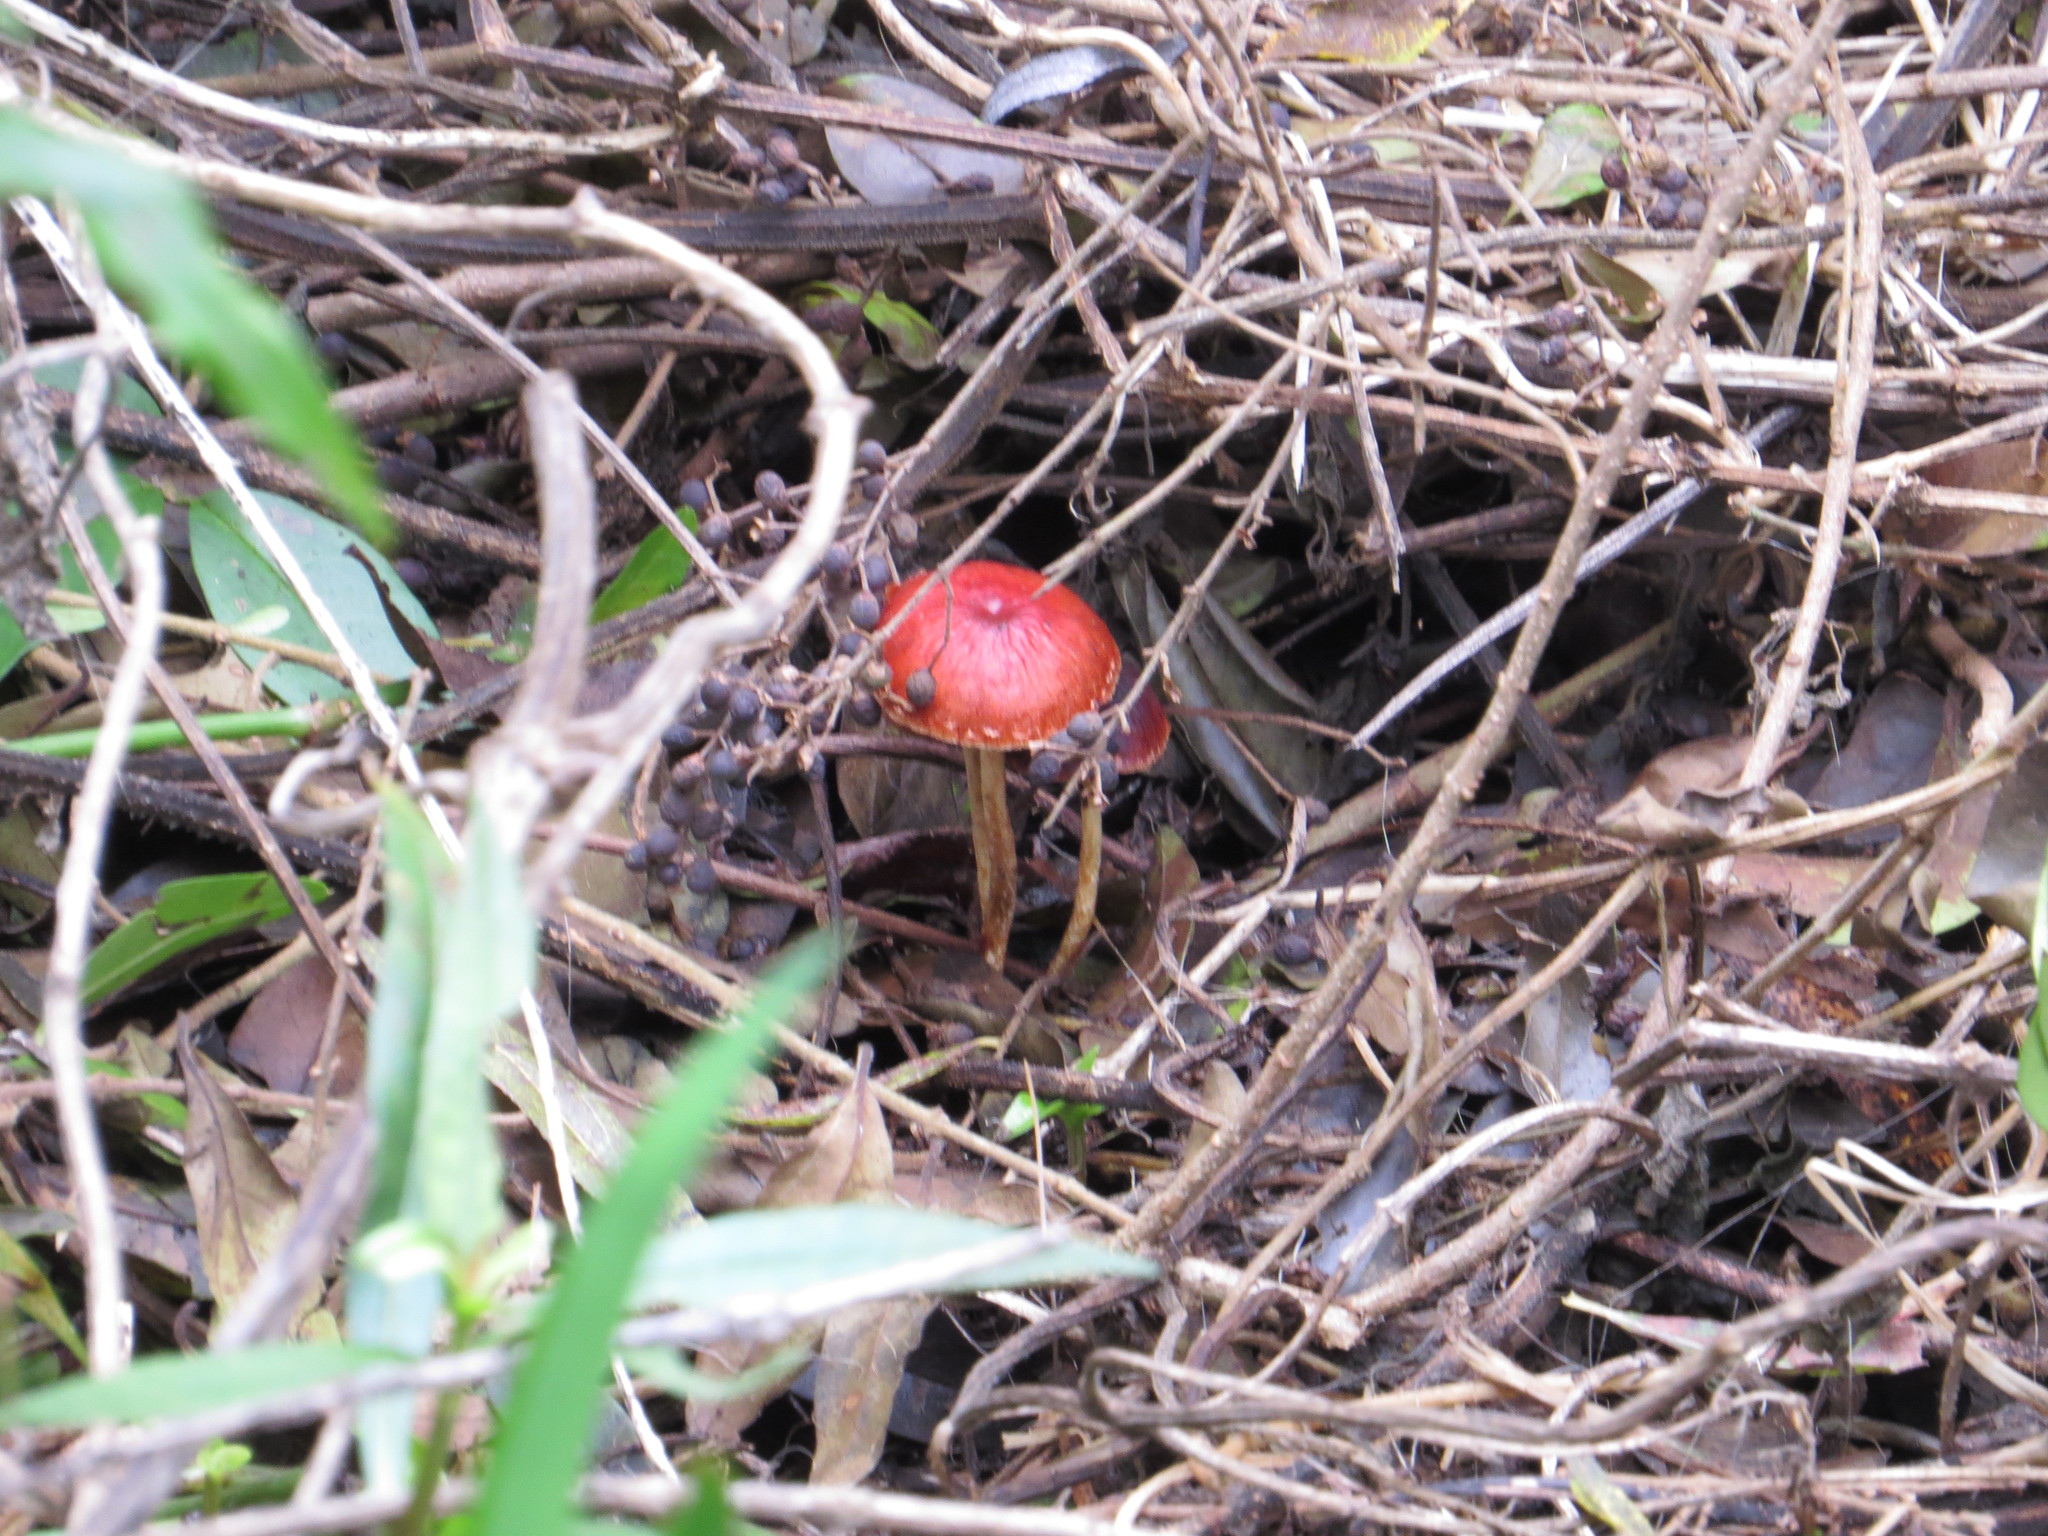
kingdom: Fungi
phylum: Basidiomycota
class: Agaricomycetes
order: Agaricales
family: Strophariaceae
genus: Leratiomyces
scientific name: Leratiomyces ceres
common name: Redlead roundhead
